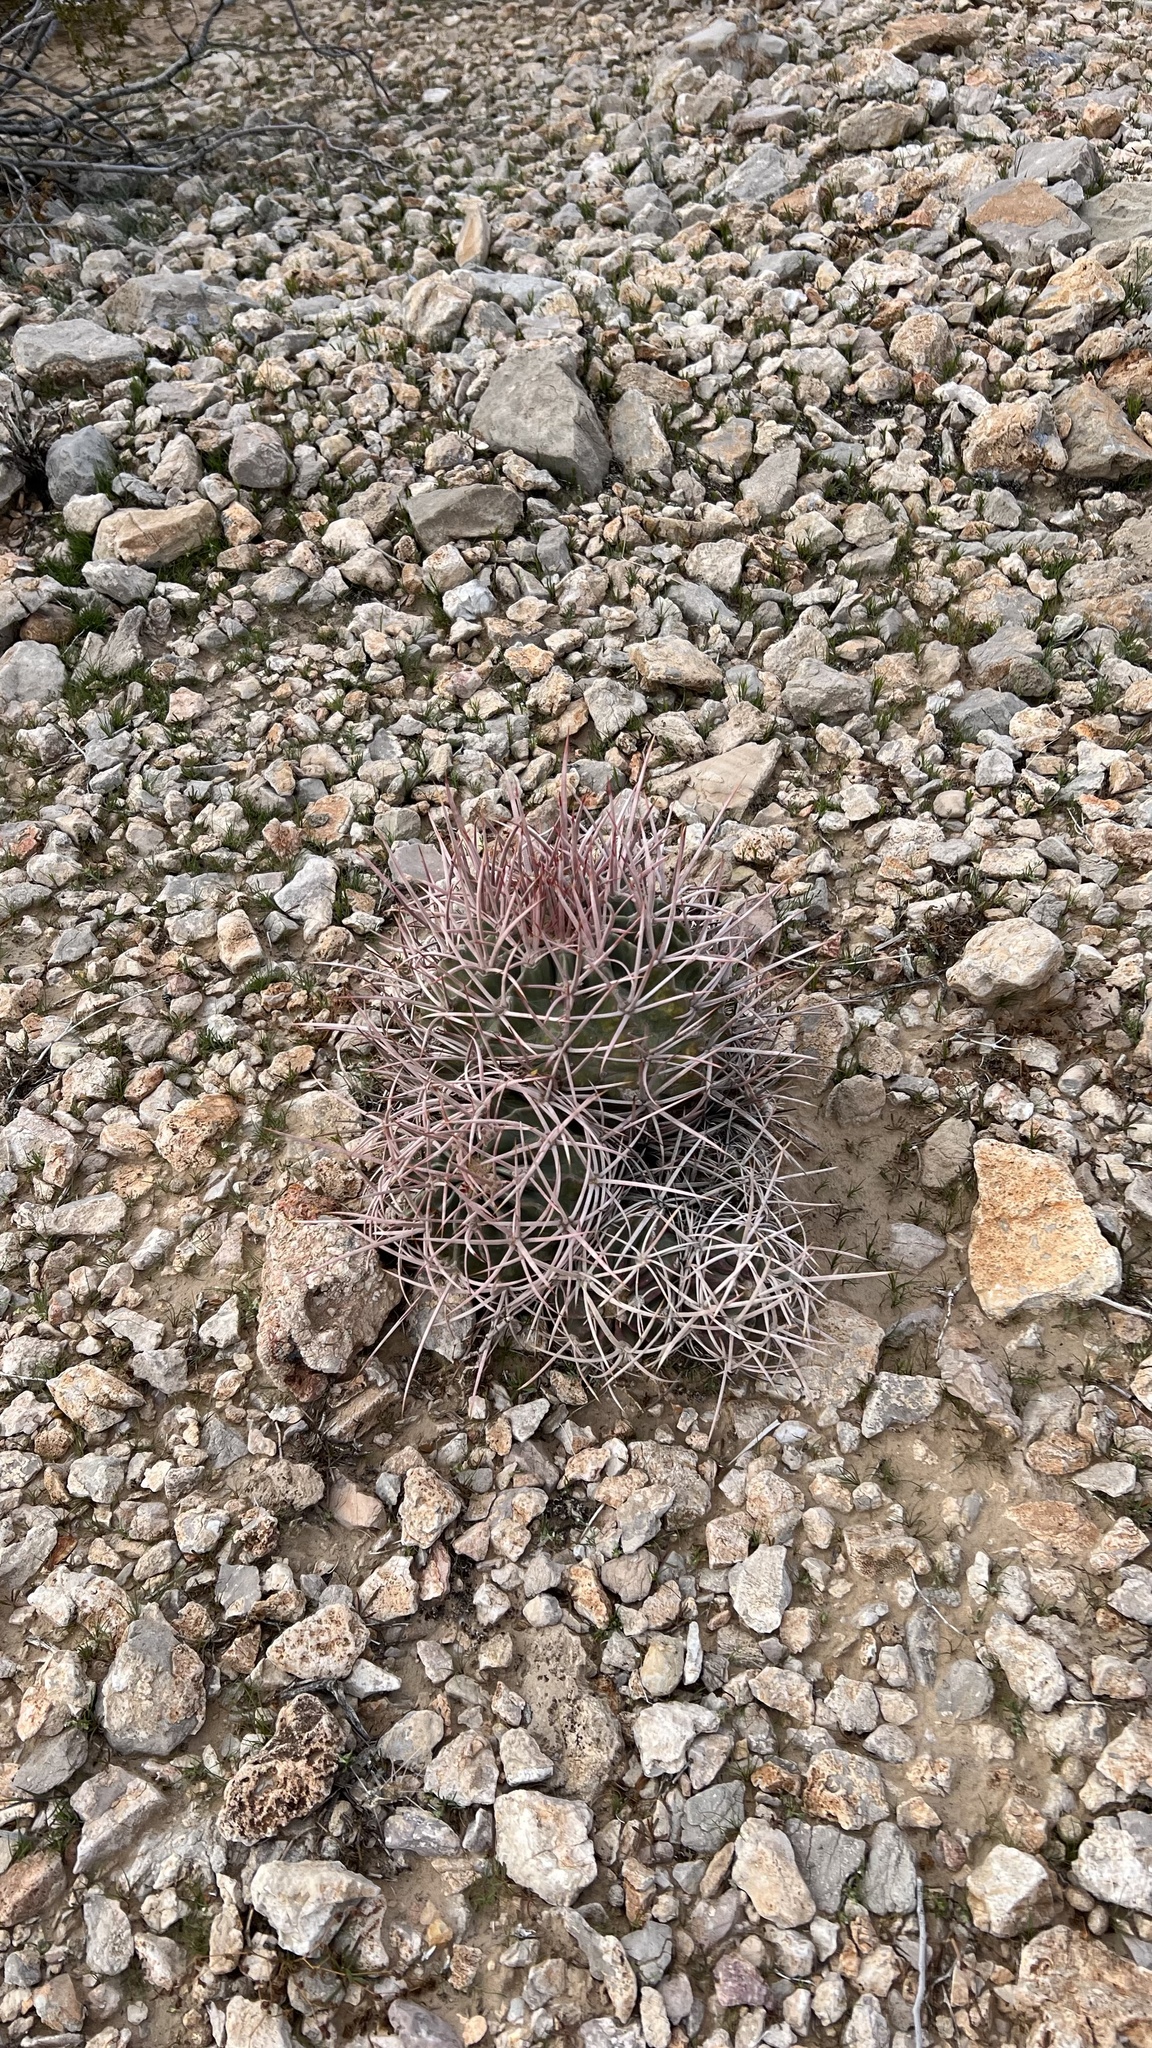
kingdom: Plantae
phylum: Tracheophyta
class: Magnoliopsida
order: Caryophyllales
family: Cactaceae
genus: Echinocactus
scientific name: Echinocactus polycephalus
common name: Cottontop cactus
